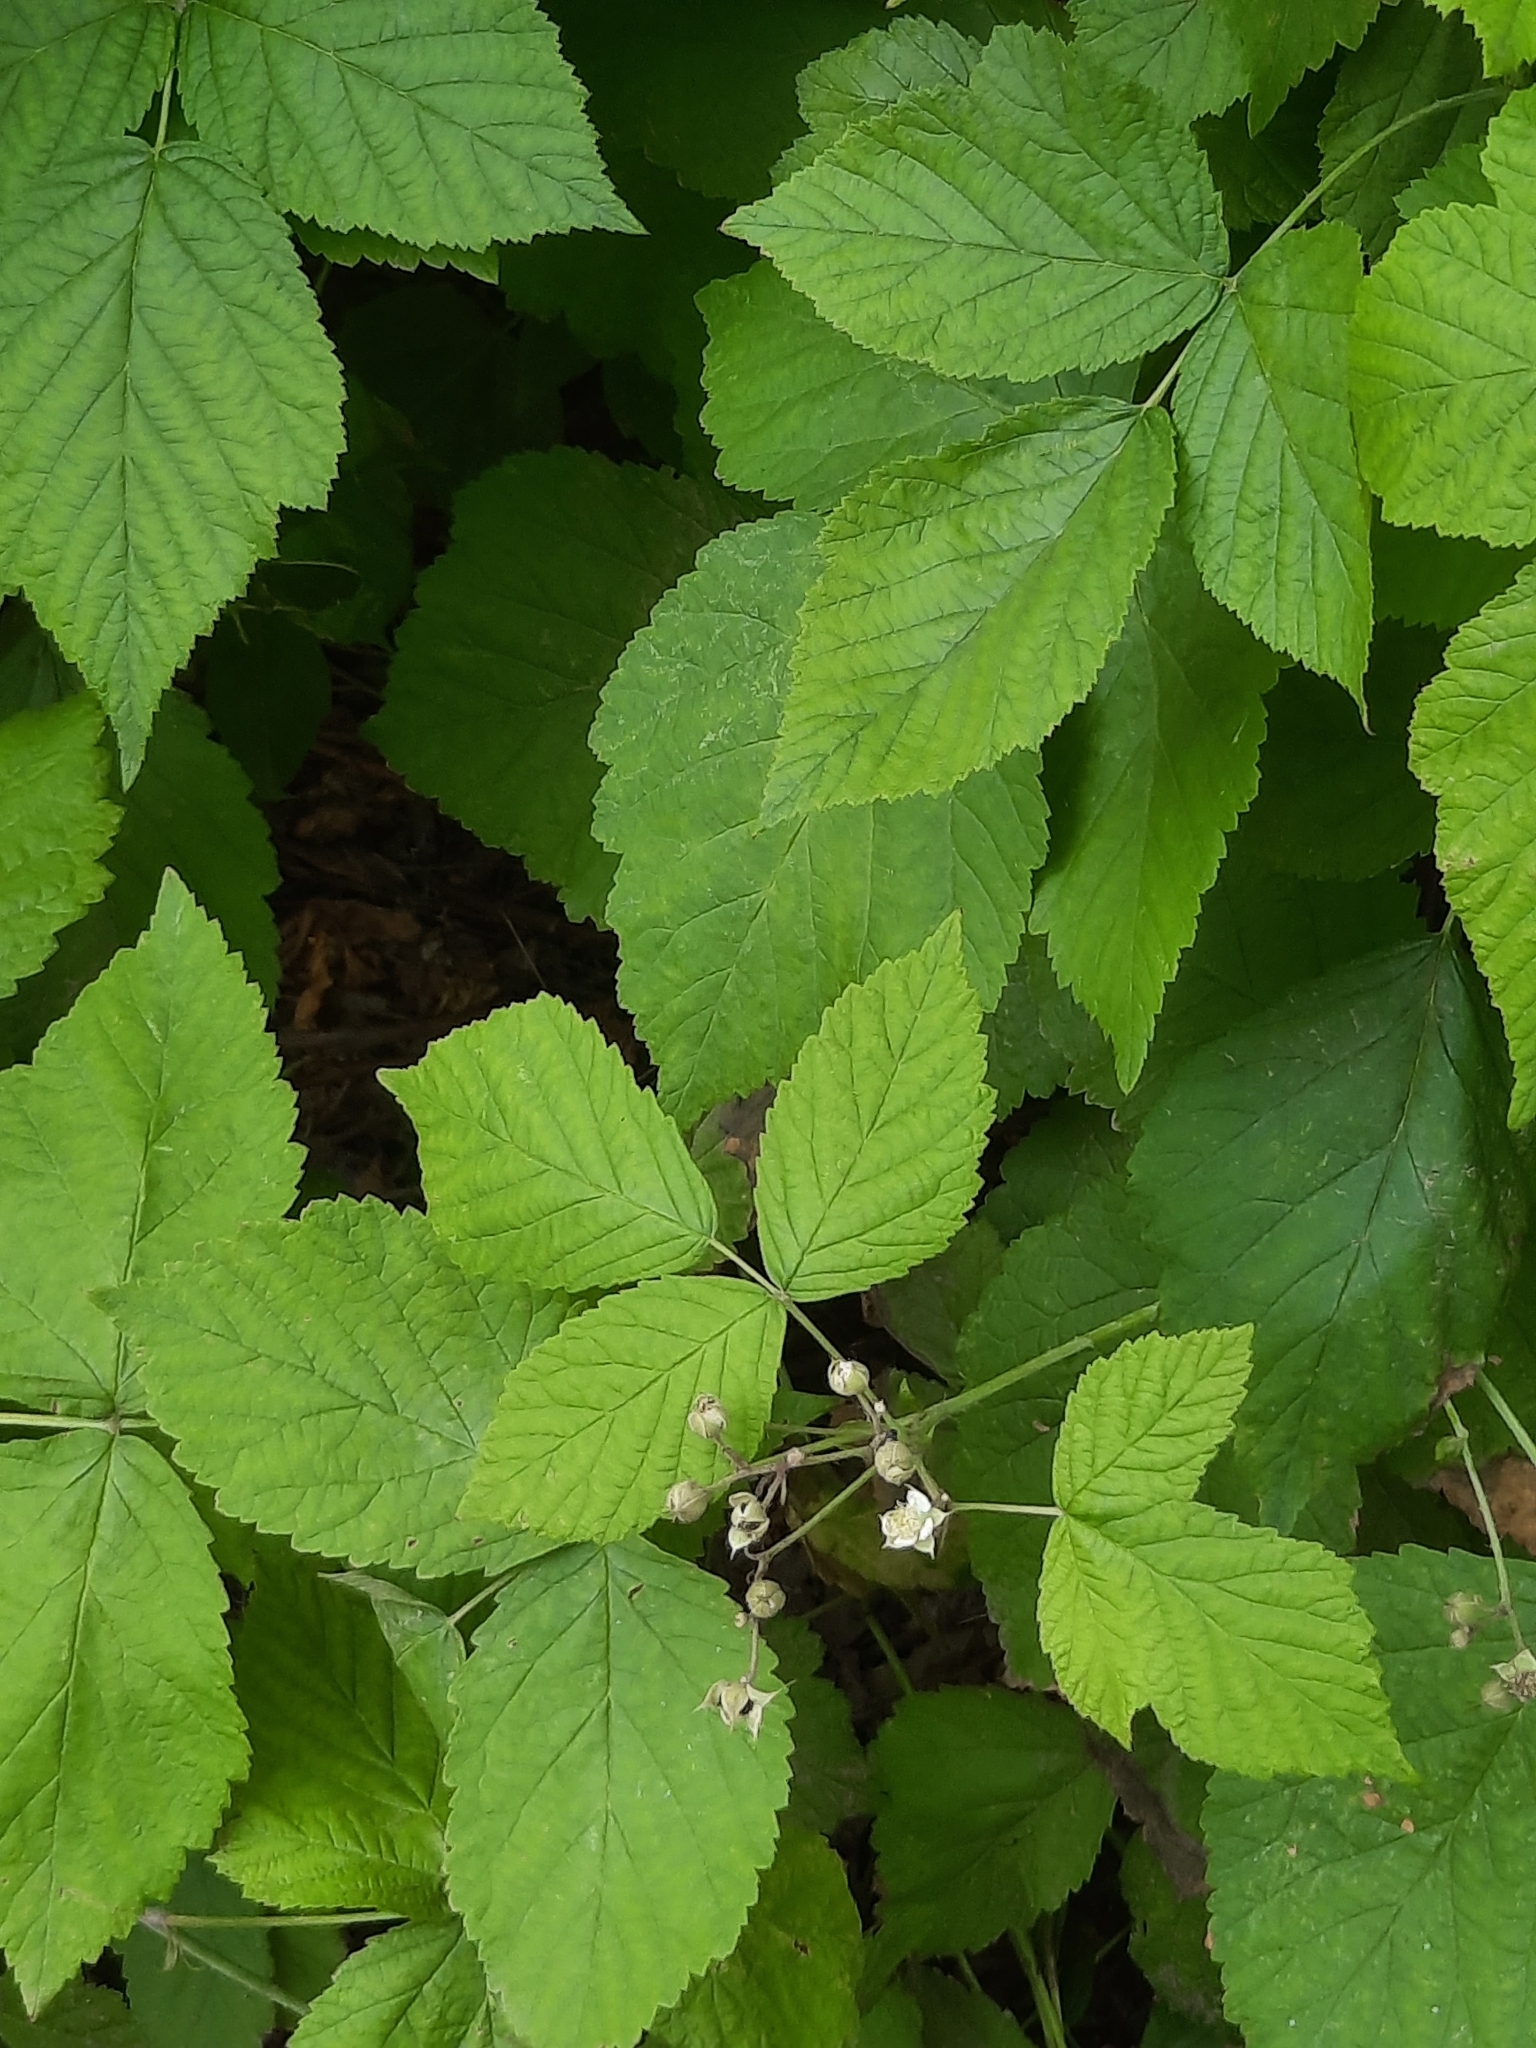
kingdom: Plantae
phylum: Tracheophyta
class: Magnoliopsida
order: Rosales
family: Rosaceae
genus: Rubus
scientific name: Rubus caesius
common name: Dewberry
